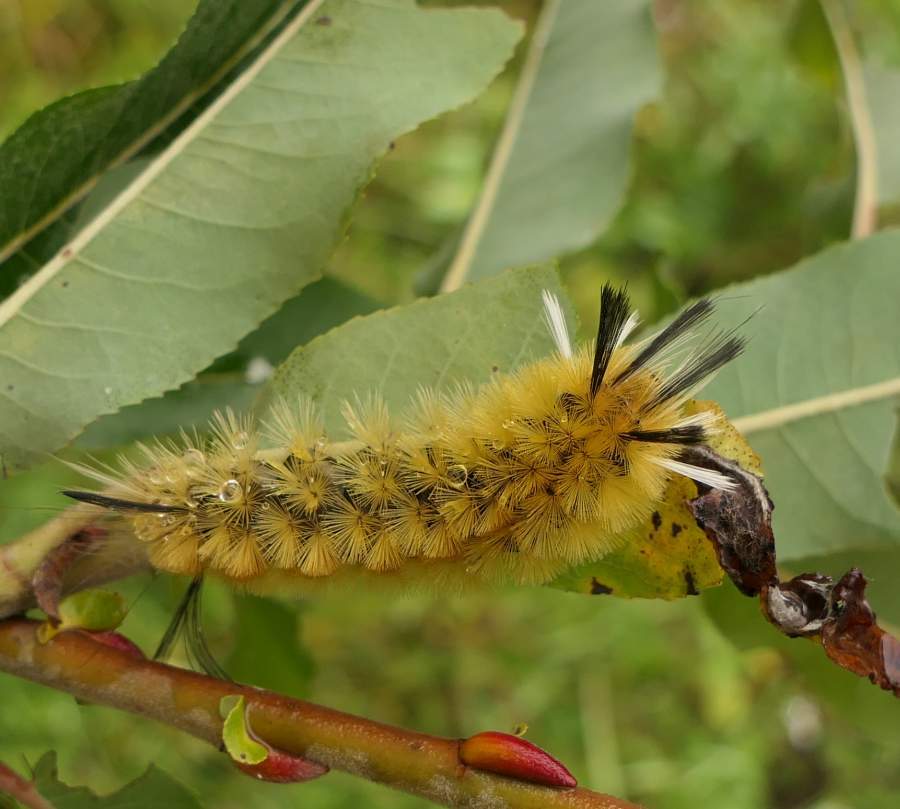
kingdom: Animalia
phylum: Arthropoda
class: Insecta
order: Lepidoptera
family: Erebidae
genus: Halysidota
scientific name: Halysidota tessellaris
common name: Banded tussock moth
